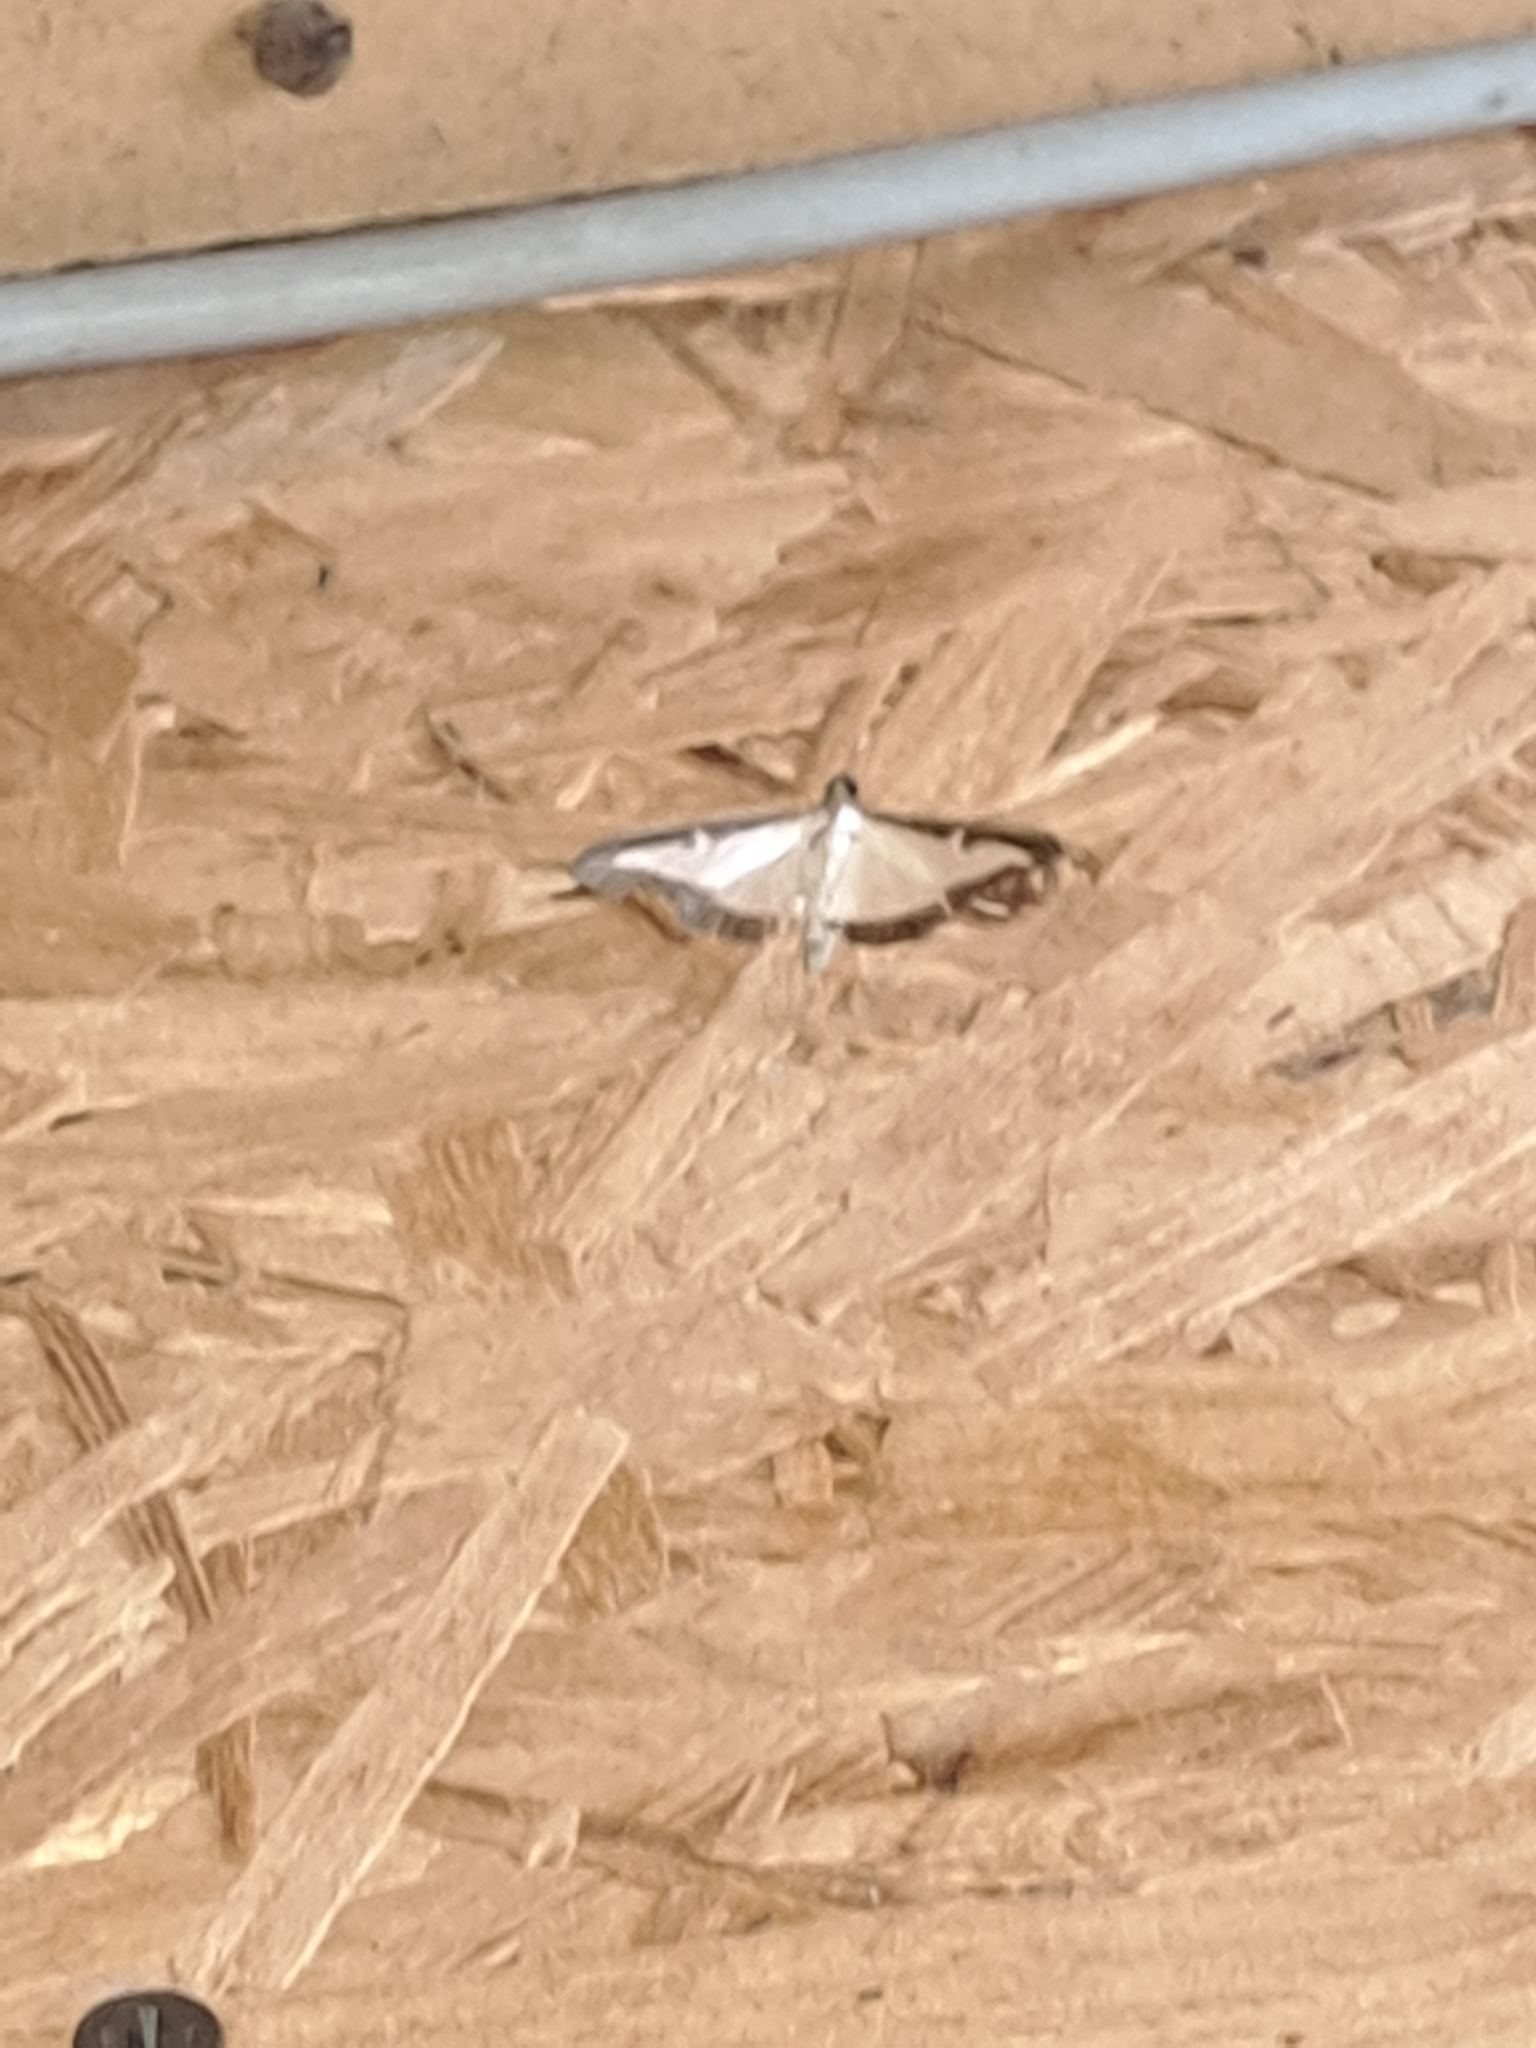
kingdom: Animalia
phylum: Arthropoda
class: Insecta
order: Lepidoptera
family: Crambidae
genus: Cydalima
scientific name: Cydalima perspectalis
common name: Box tree moth
